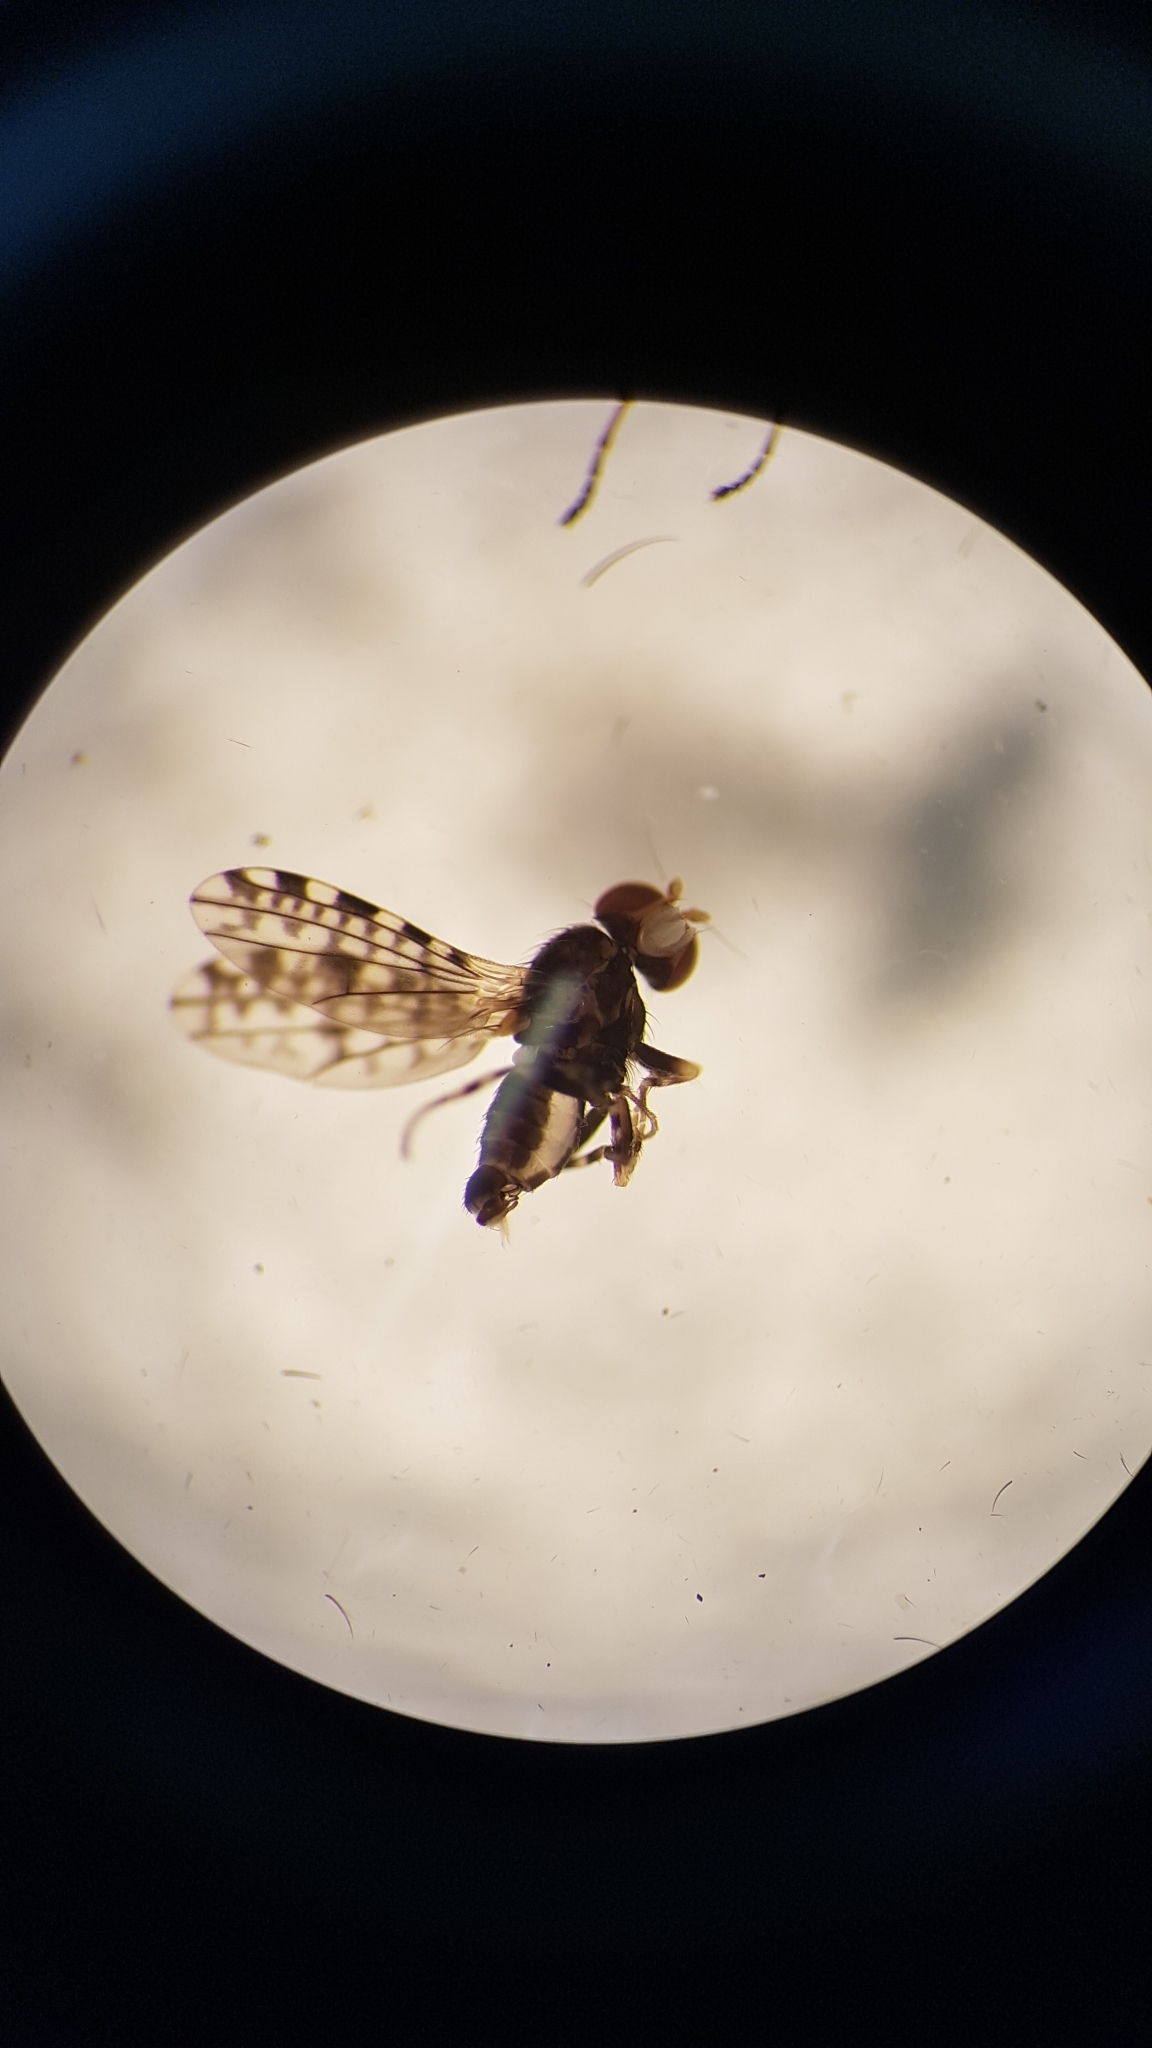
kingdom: Animalia
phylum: Arthropoda
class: Insecta
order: Diptera
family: Heleomyzidae
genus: Xeneura
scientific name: Xeneura picata
